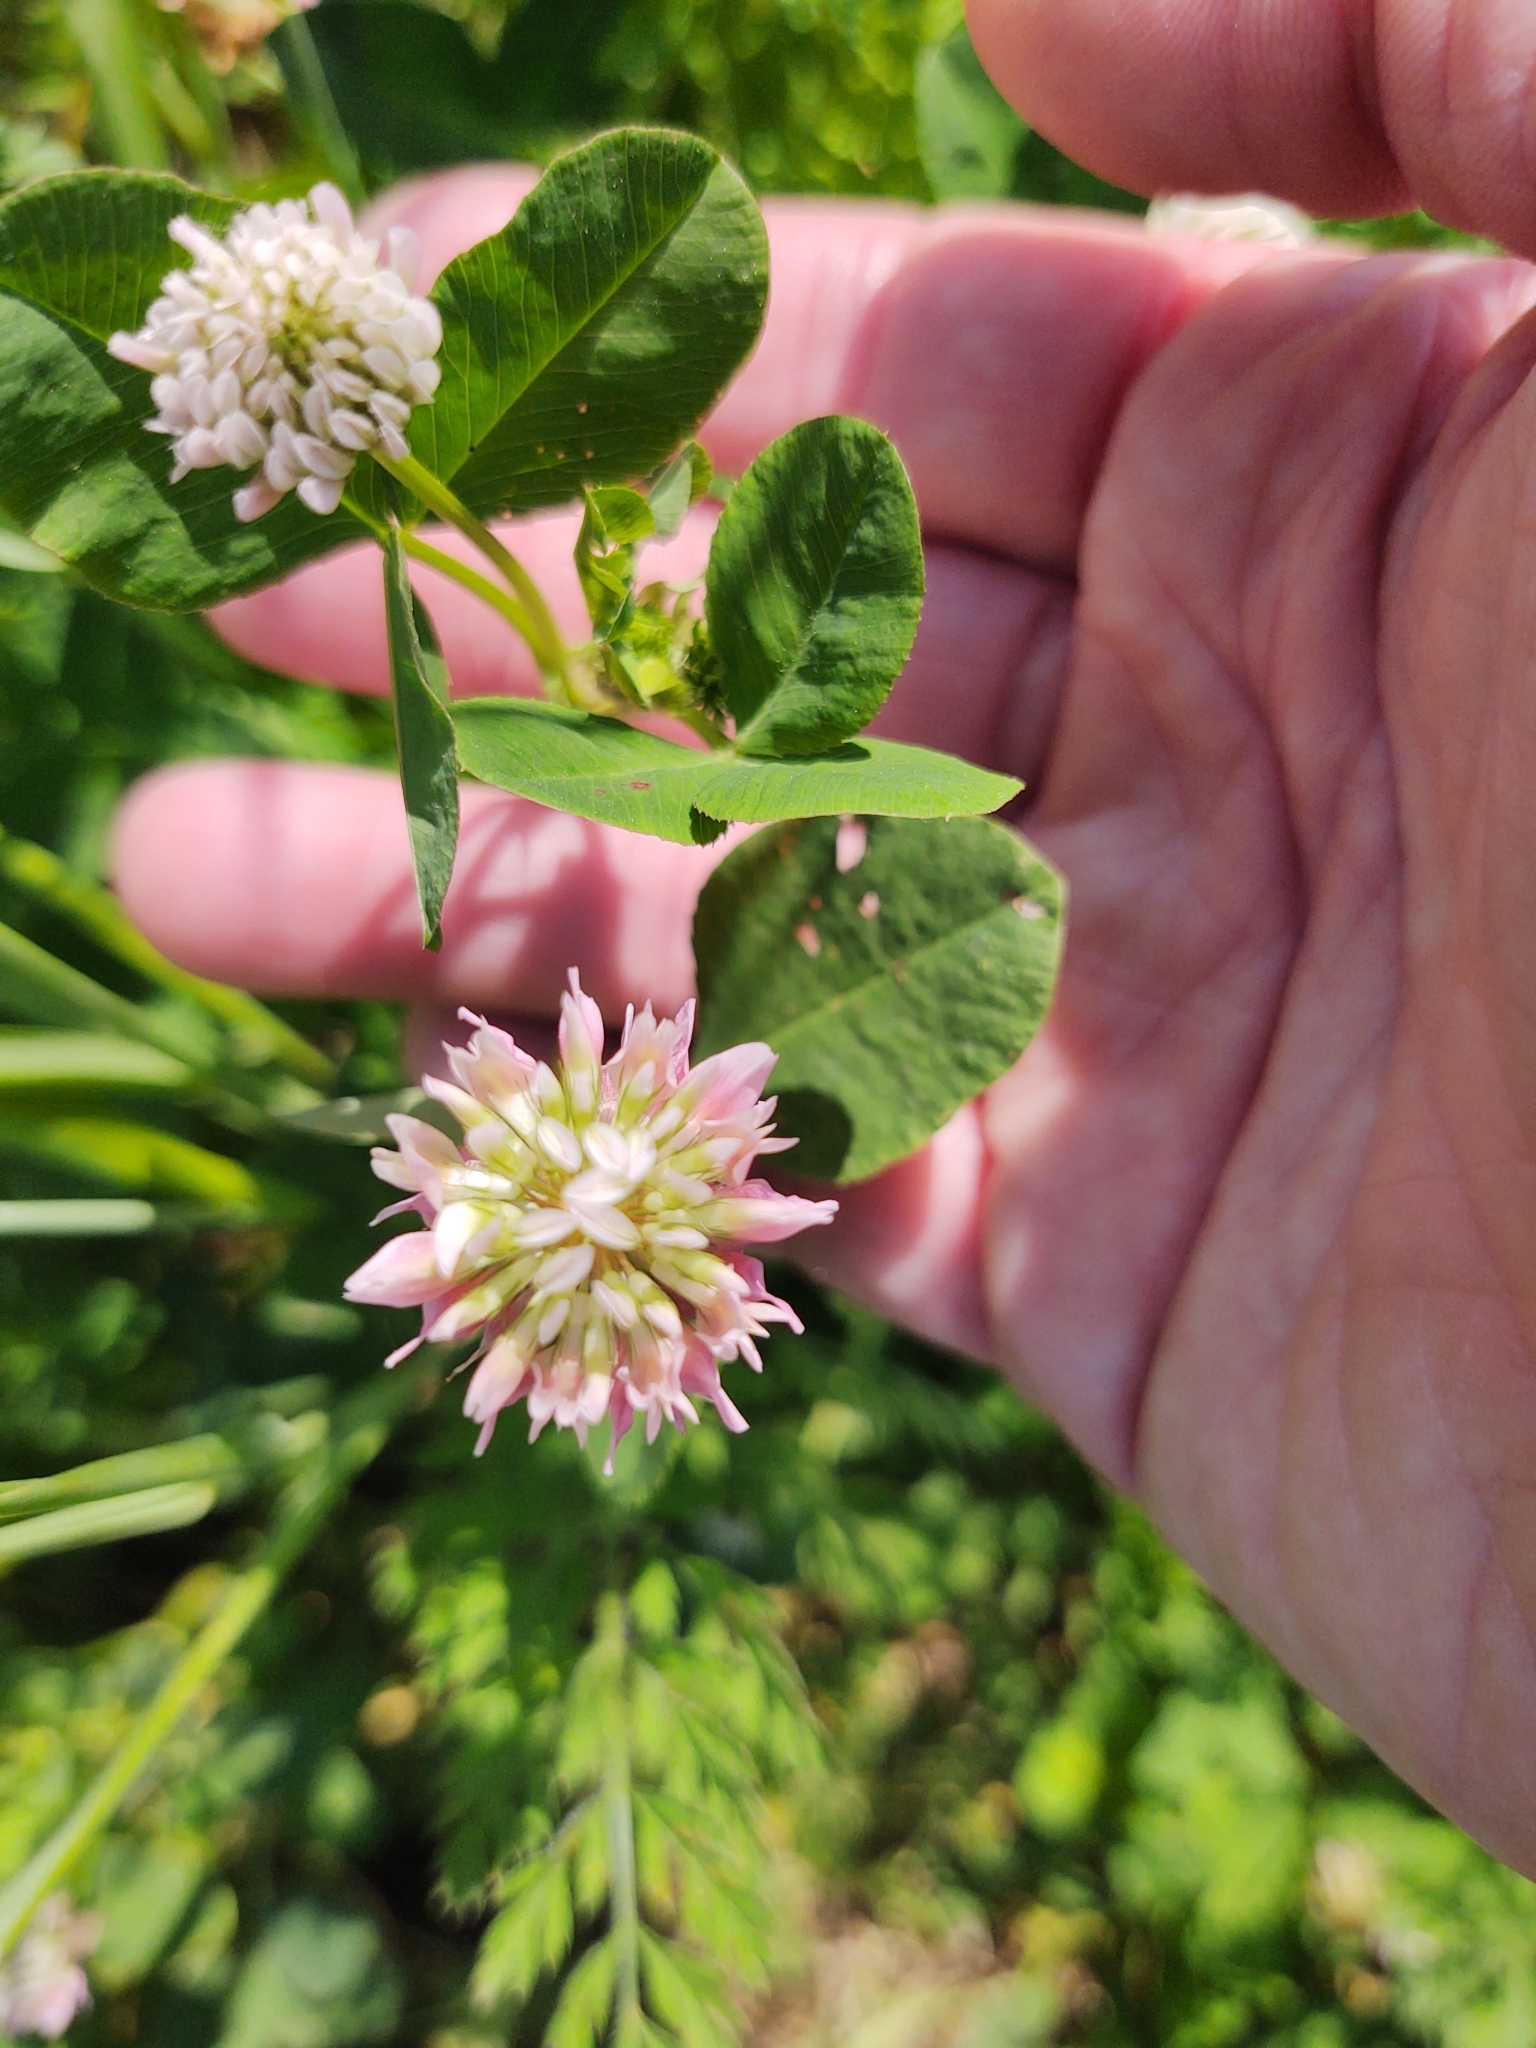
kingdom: Plantae
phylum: Tracheophyta
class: Magnoliopsida
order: Fabales
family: Fabaceae
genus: Trifolium
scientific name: Trifolium hybridum
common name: Alsike clover
